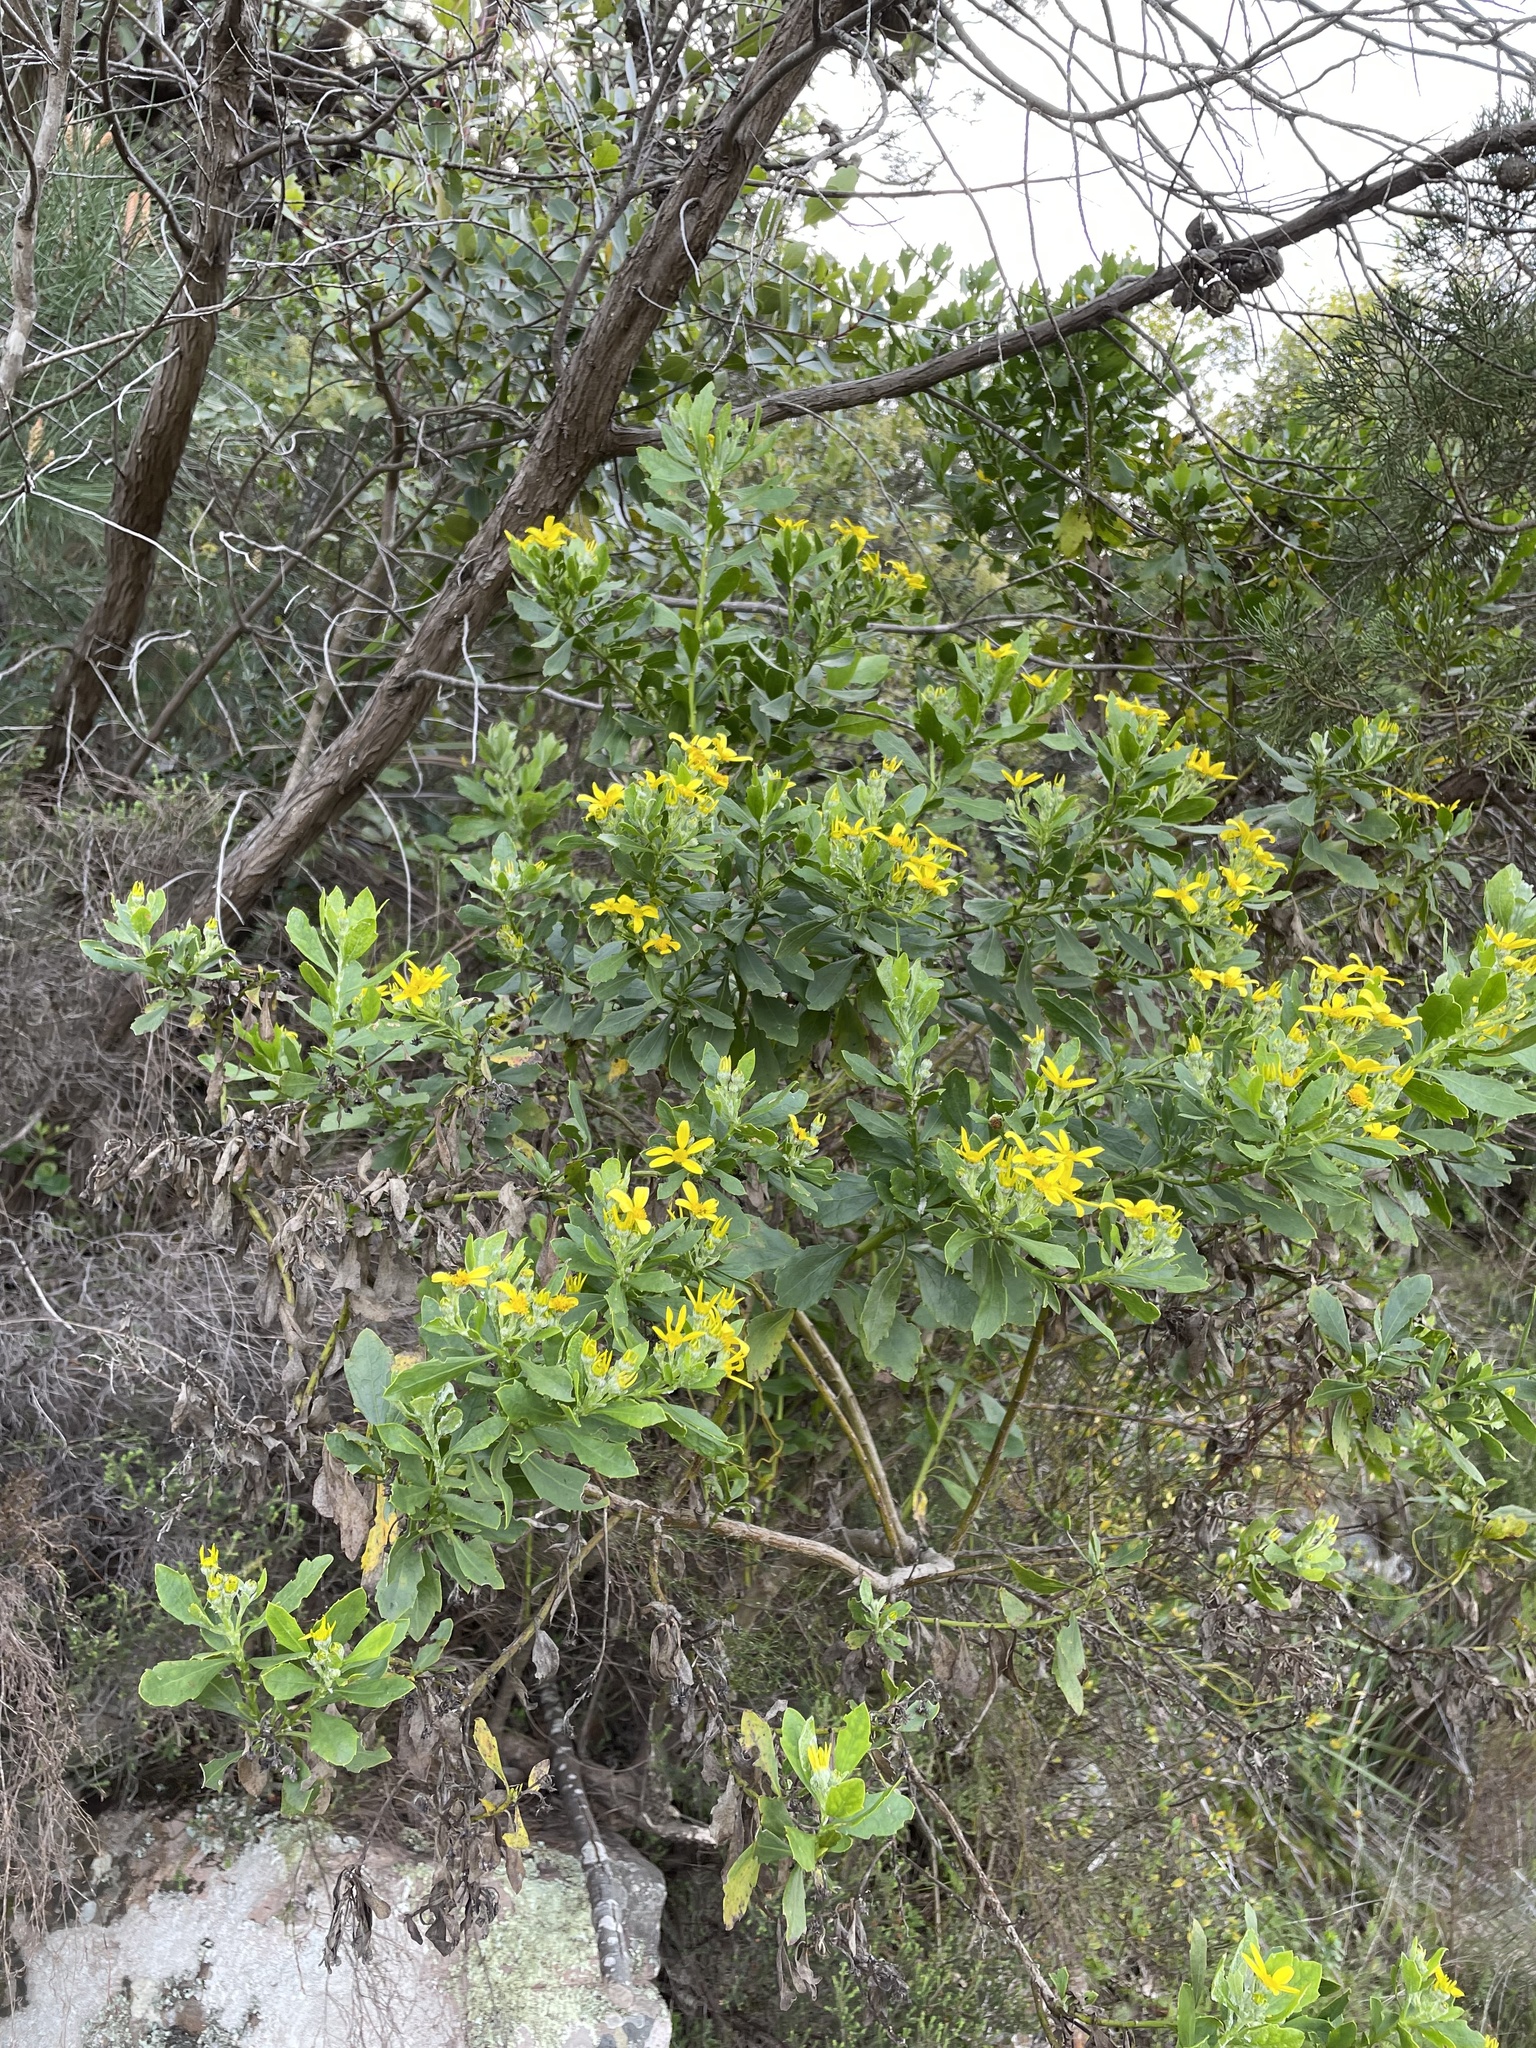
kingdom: Plantae
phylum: Tracheophyta
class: Magnoliopsida
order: Asterales
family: Asteraceae
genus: Osteospermum
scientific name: Osteospermum moniliferum
